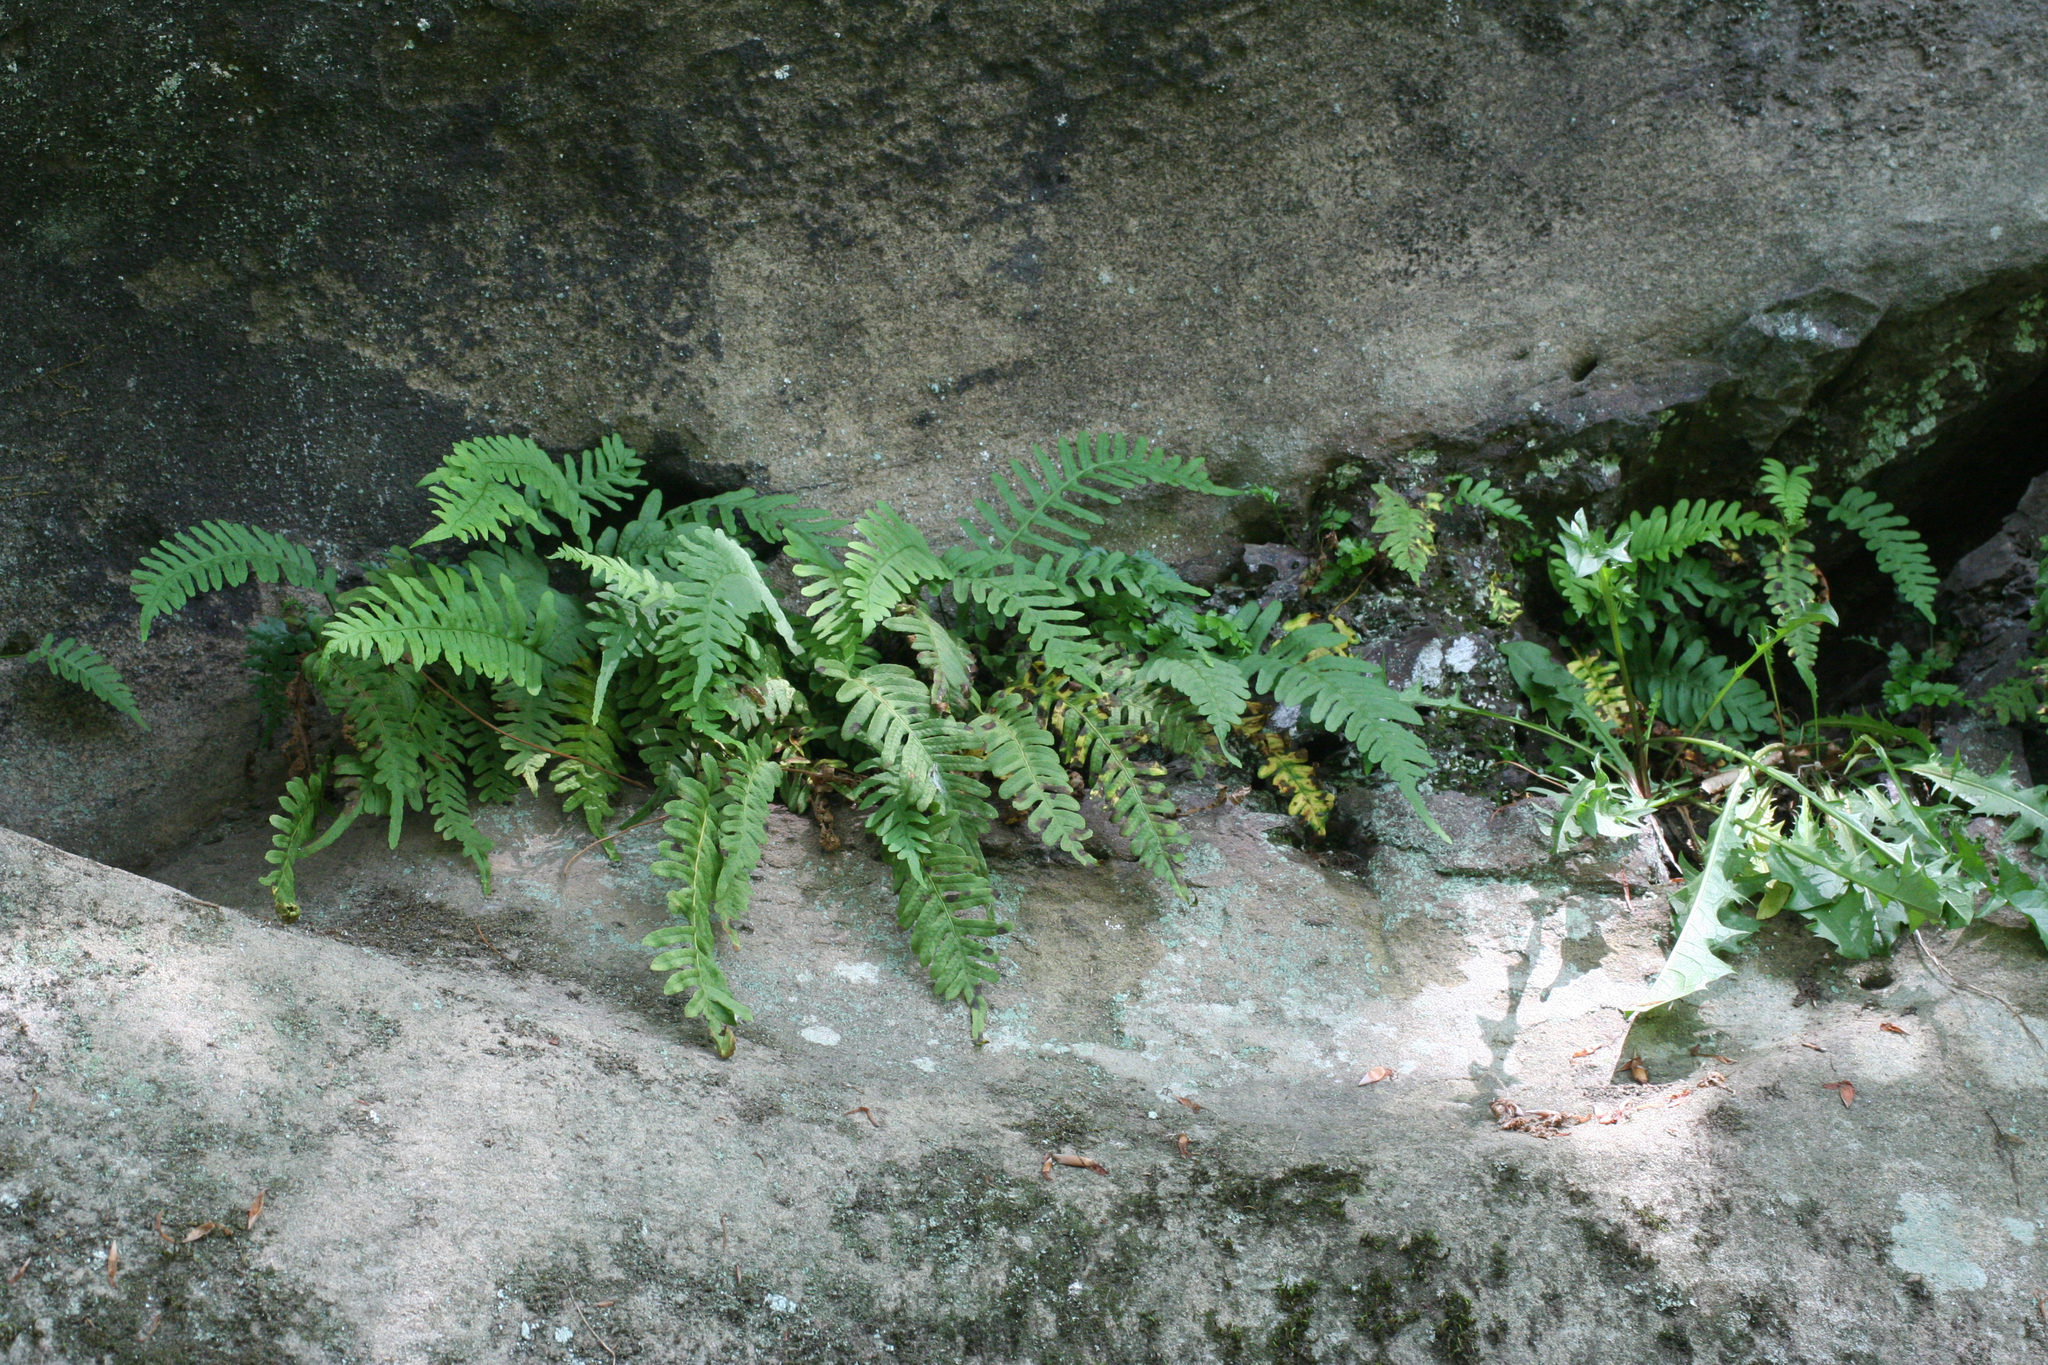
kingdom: Plantae
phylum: Tracheophyta
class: Polypodiopsida
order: Polypodiales
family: Polypodiaceae
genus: Polypodium
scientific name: Polypodium vulgare
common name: Common polypody
